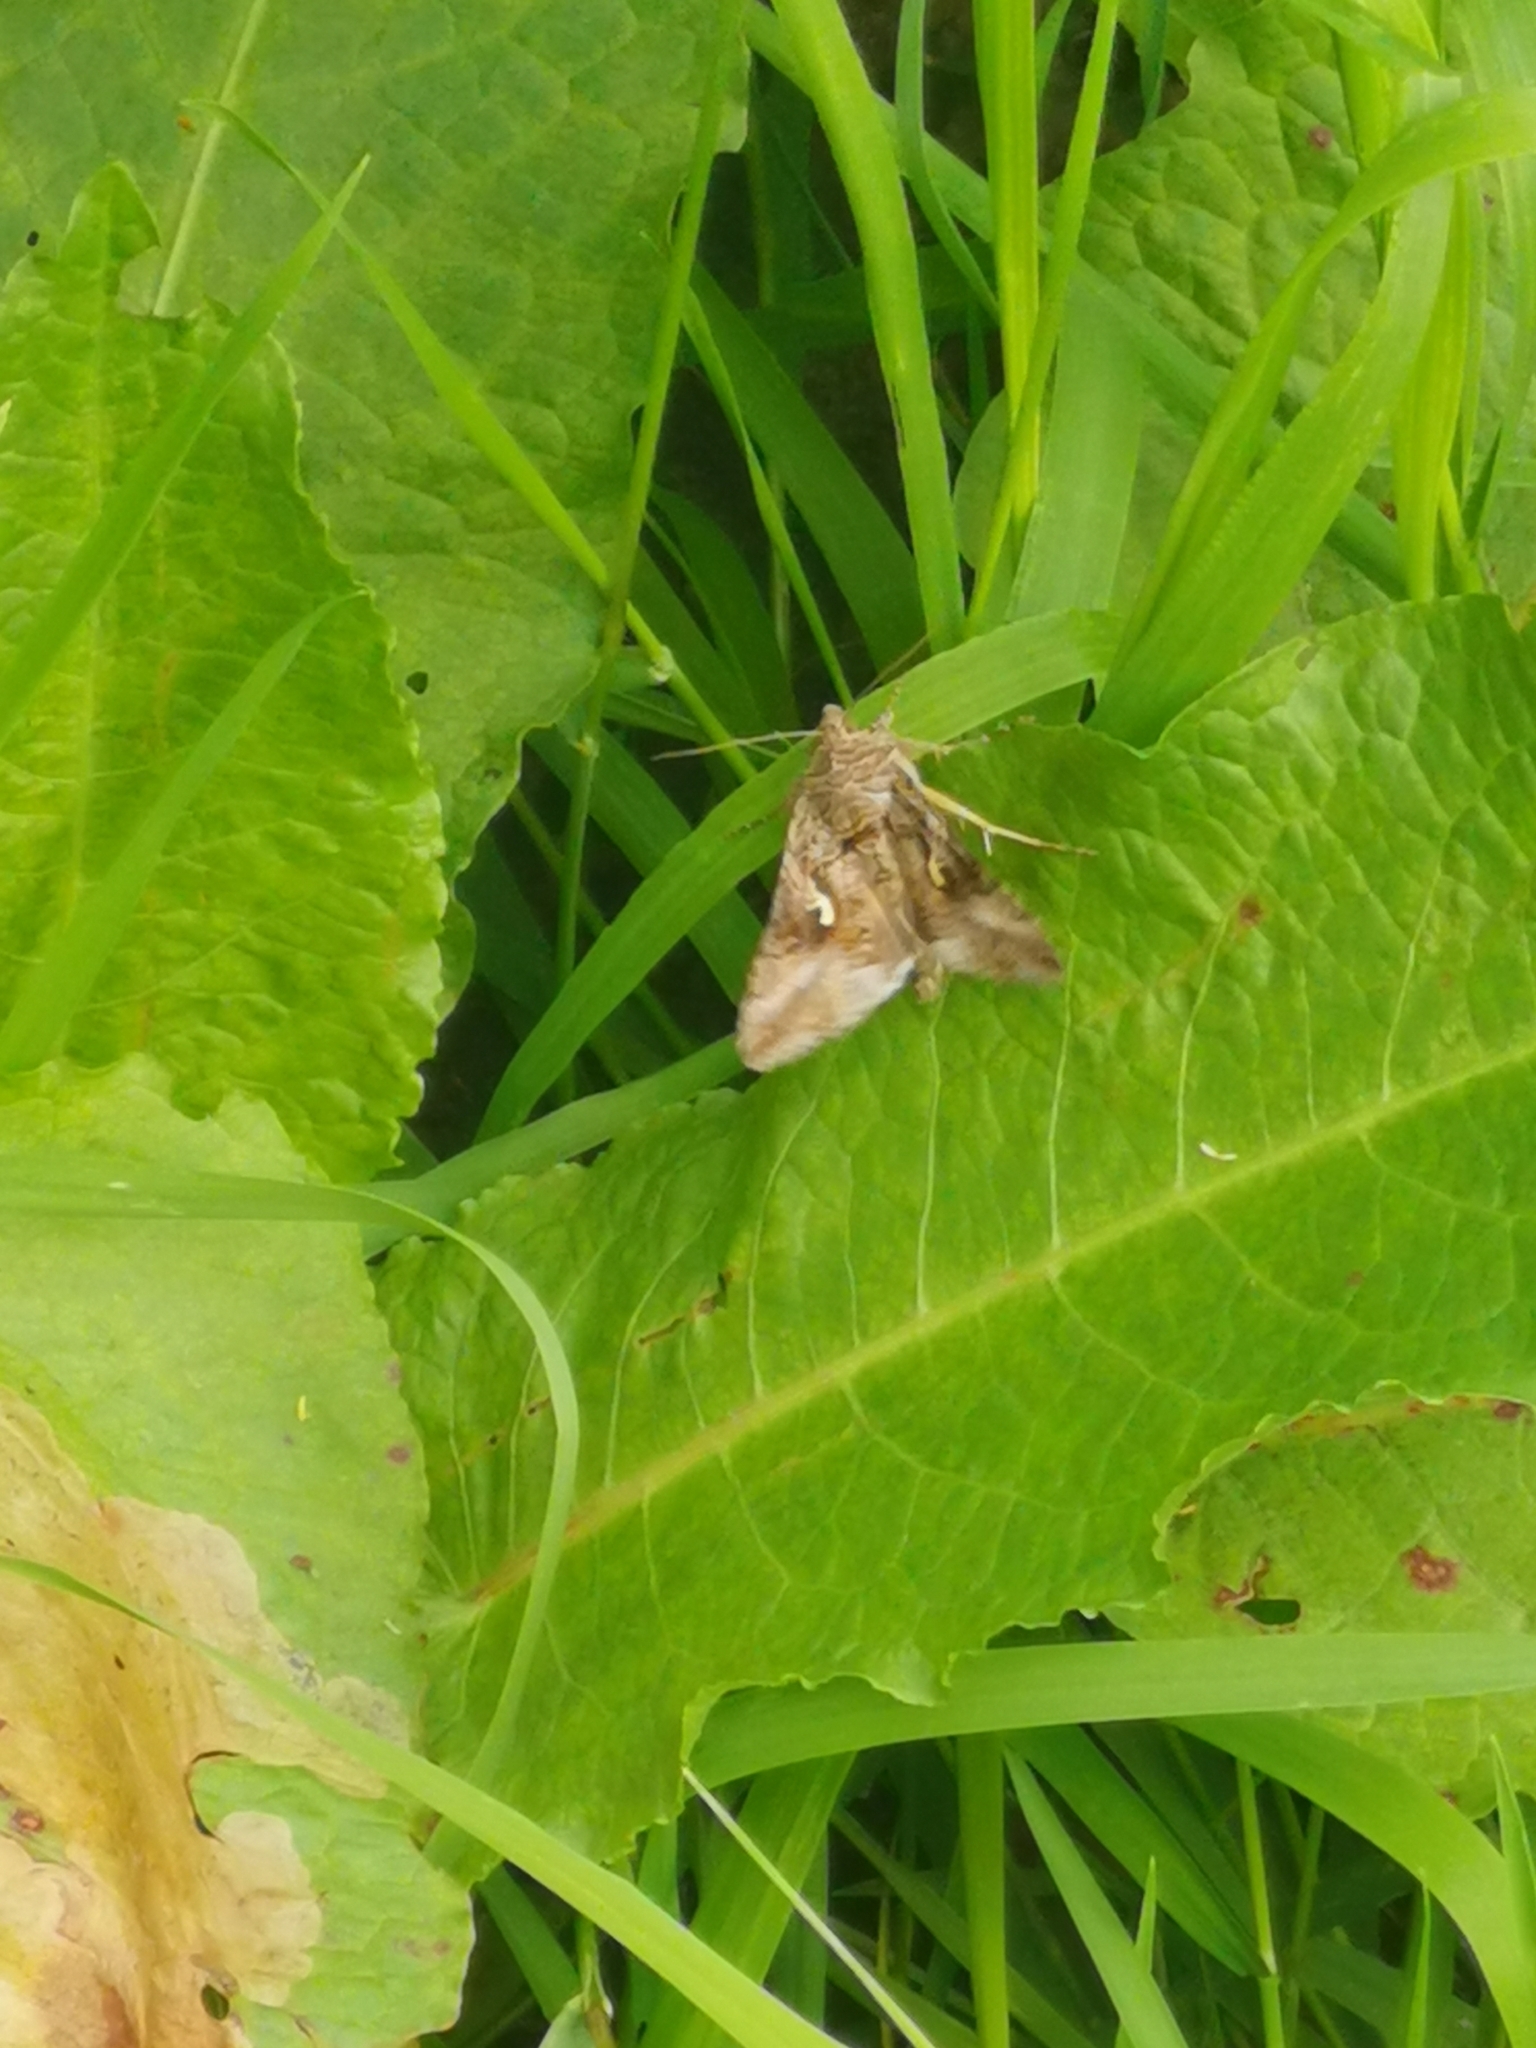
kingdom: Animalia
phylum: Arthropoda
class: Insecta
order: Lepidoptera
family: Noctuidae
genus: Autographa
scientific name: Autographa gamma
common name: Silver y
